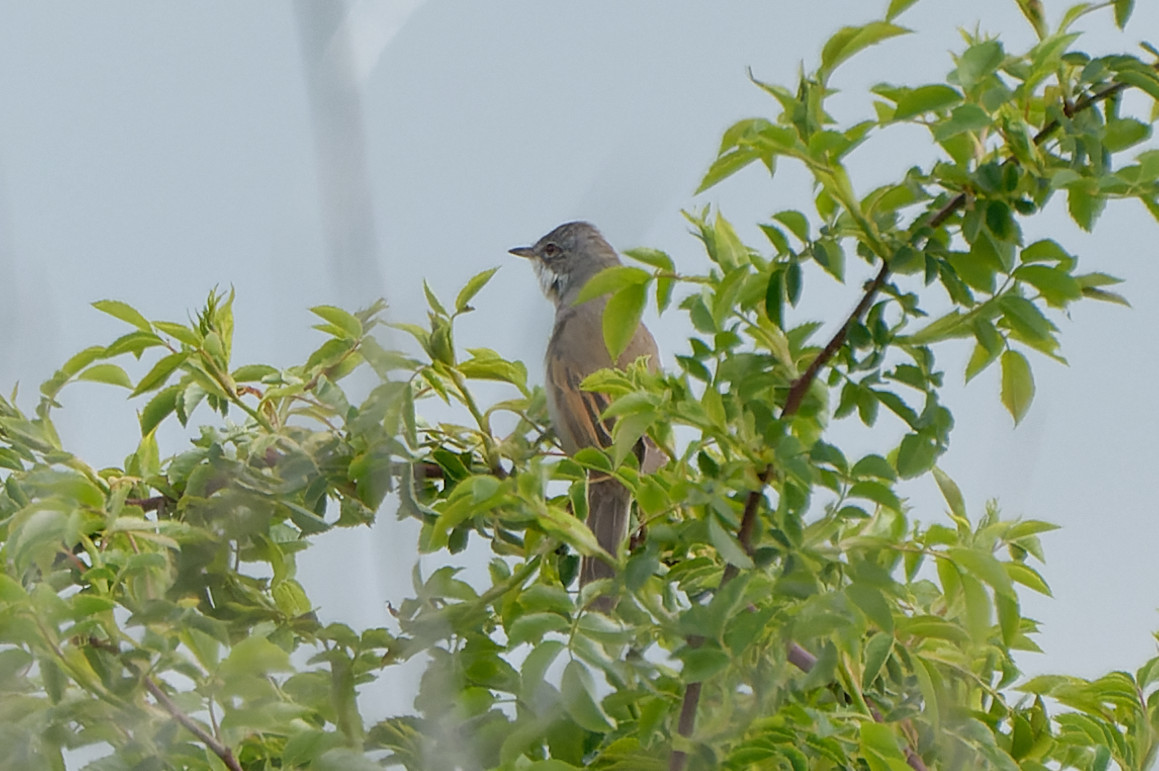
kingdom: Animalia
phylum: Chordata
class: Aves
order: Passeriformes
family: Sylviidae
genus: Sylvia
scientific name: Sylvia communis
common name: Common whitethroat
